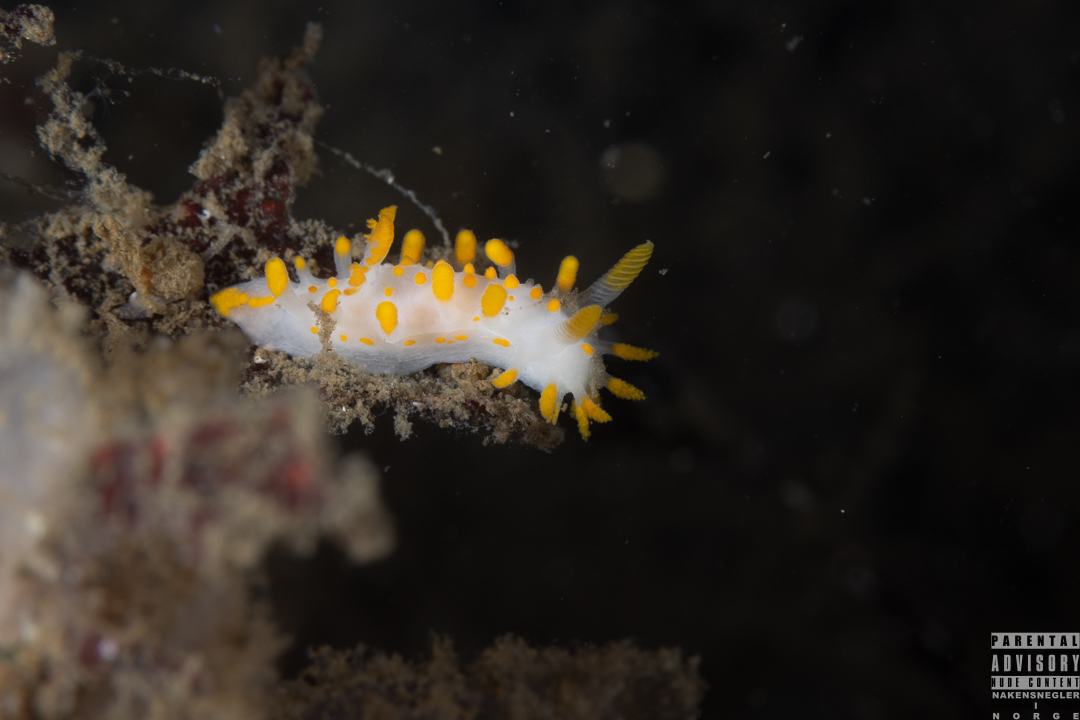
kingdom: Animalia
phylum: Mollusca
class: Gastropoda
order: Nudibranchia
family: Polyceridae
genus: Limacia
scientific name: Limacia clavigera
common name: Orange-clubbed sea slug
